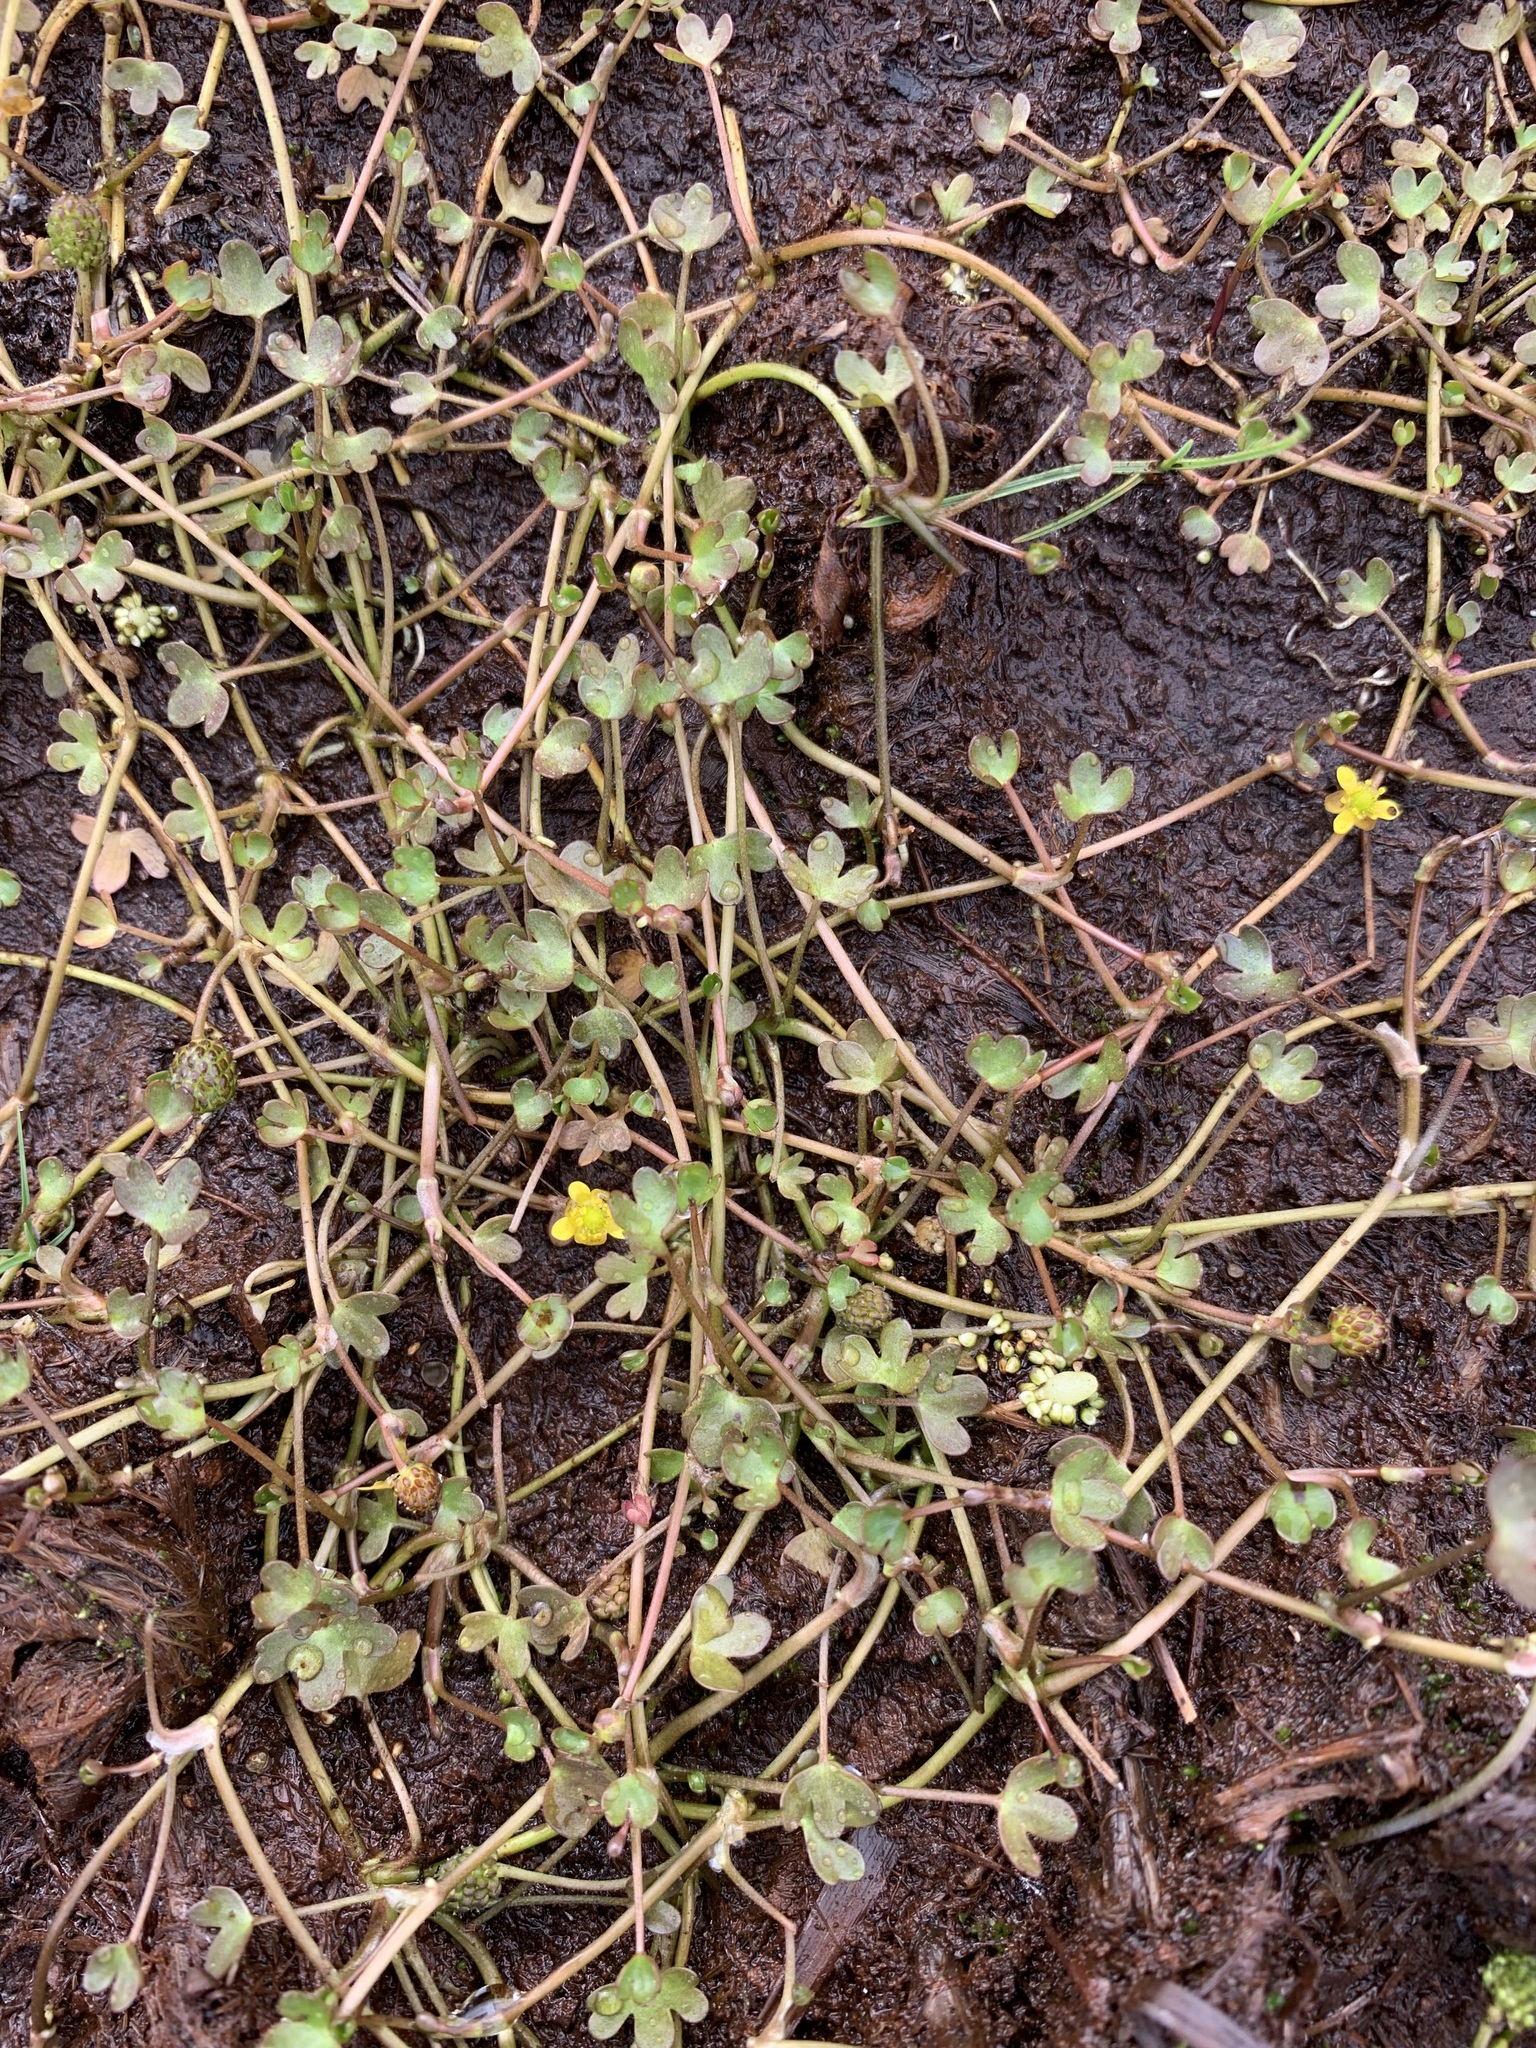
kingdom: Plantae
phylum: Tracheophyta
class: Magnoliopsida
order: Ranunculales
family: Ranunculaceae
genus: Ranunculus
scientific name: Ranunculus hyperboreus
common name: Arctic buttercup
